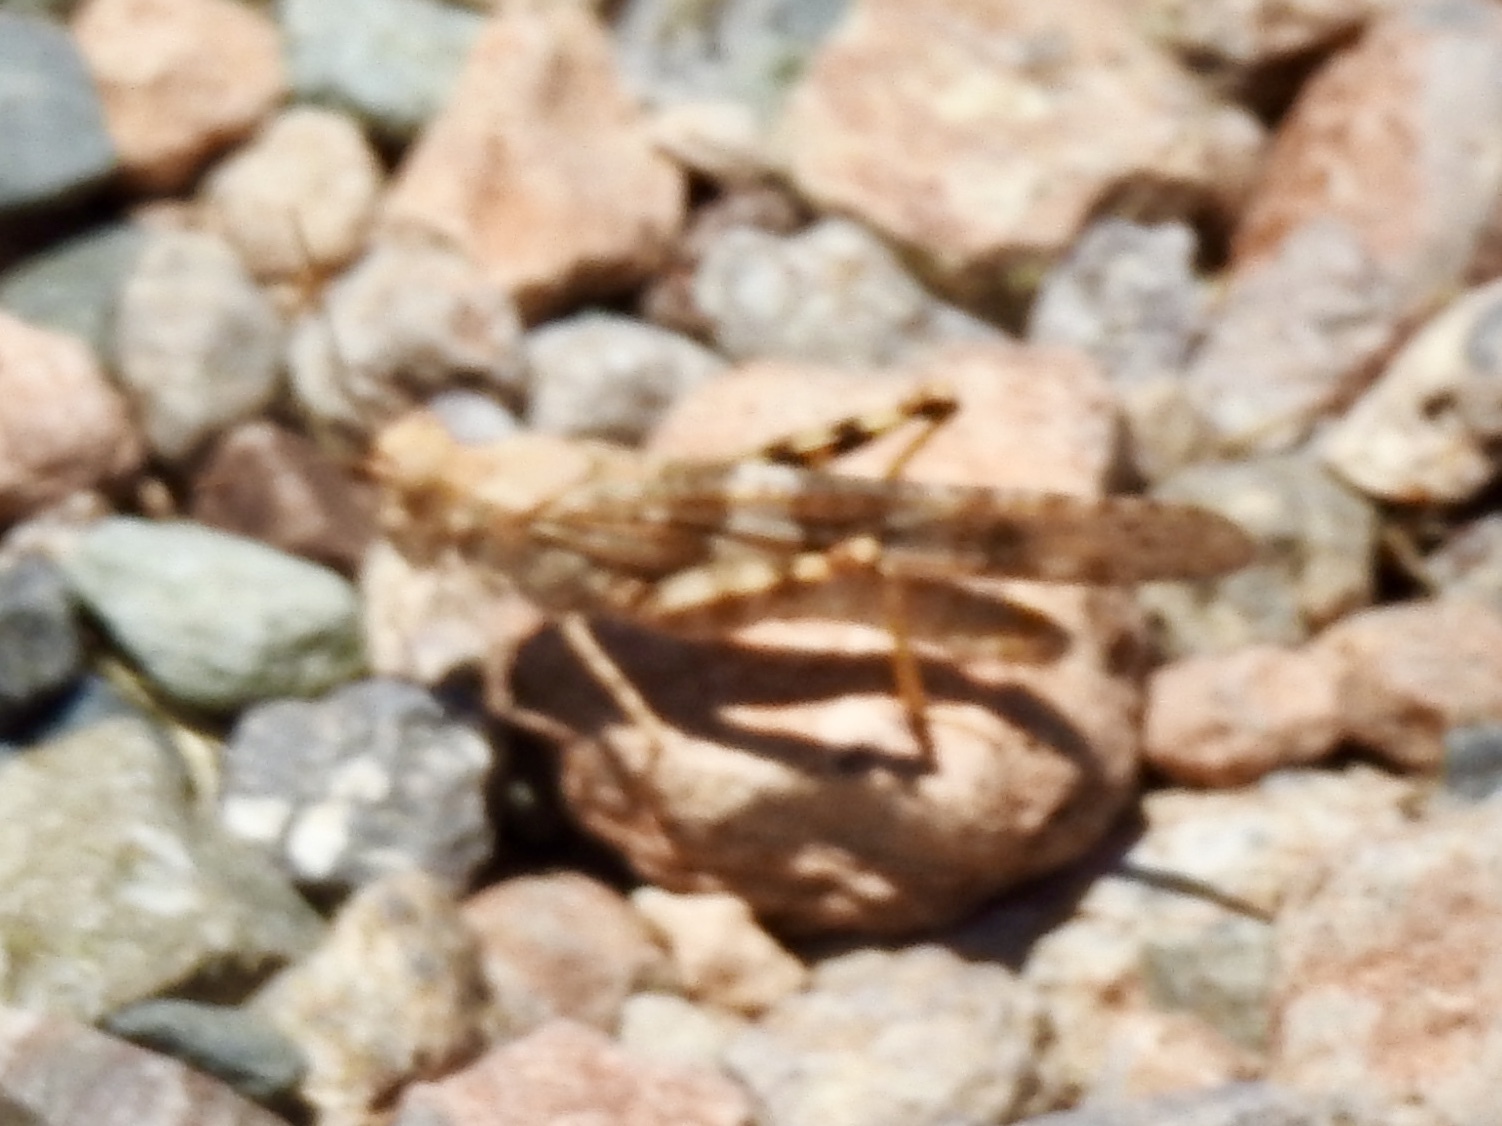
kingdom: Animalia
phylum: Arthropoda
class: Insecta
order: Orthoptera
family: Acrididae
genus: Trimerotropis
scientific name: Trimerotropis pallidipennis
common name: Pallid-winged grasshopper
